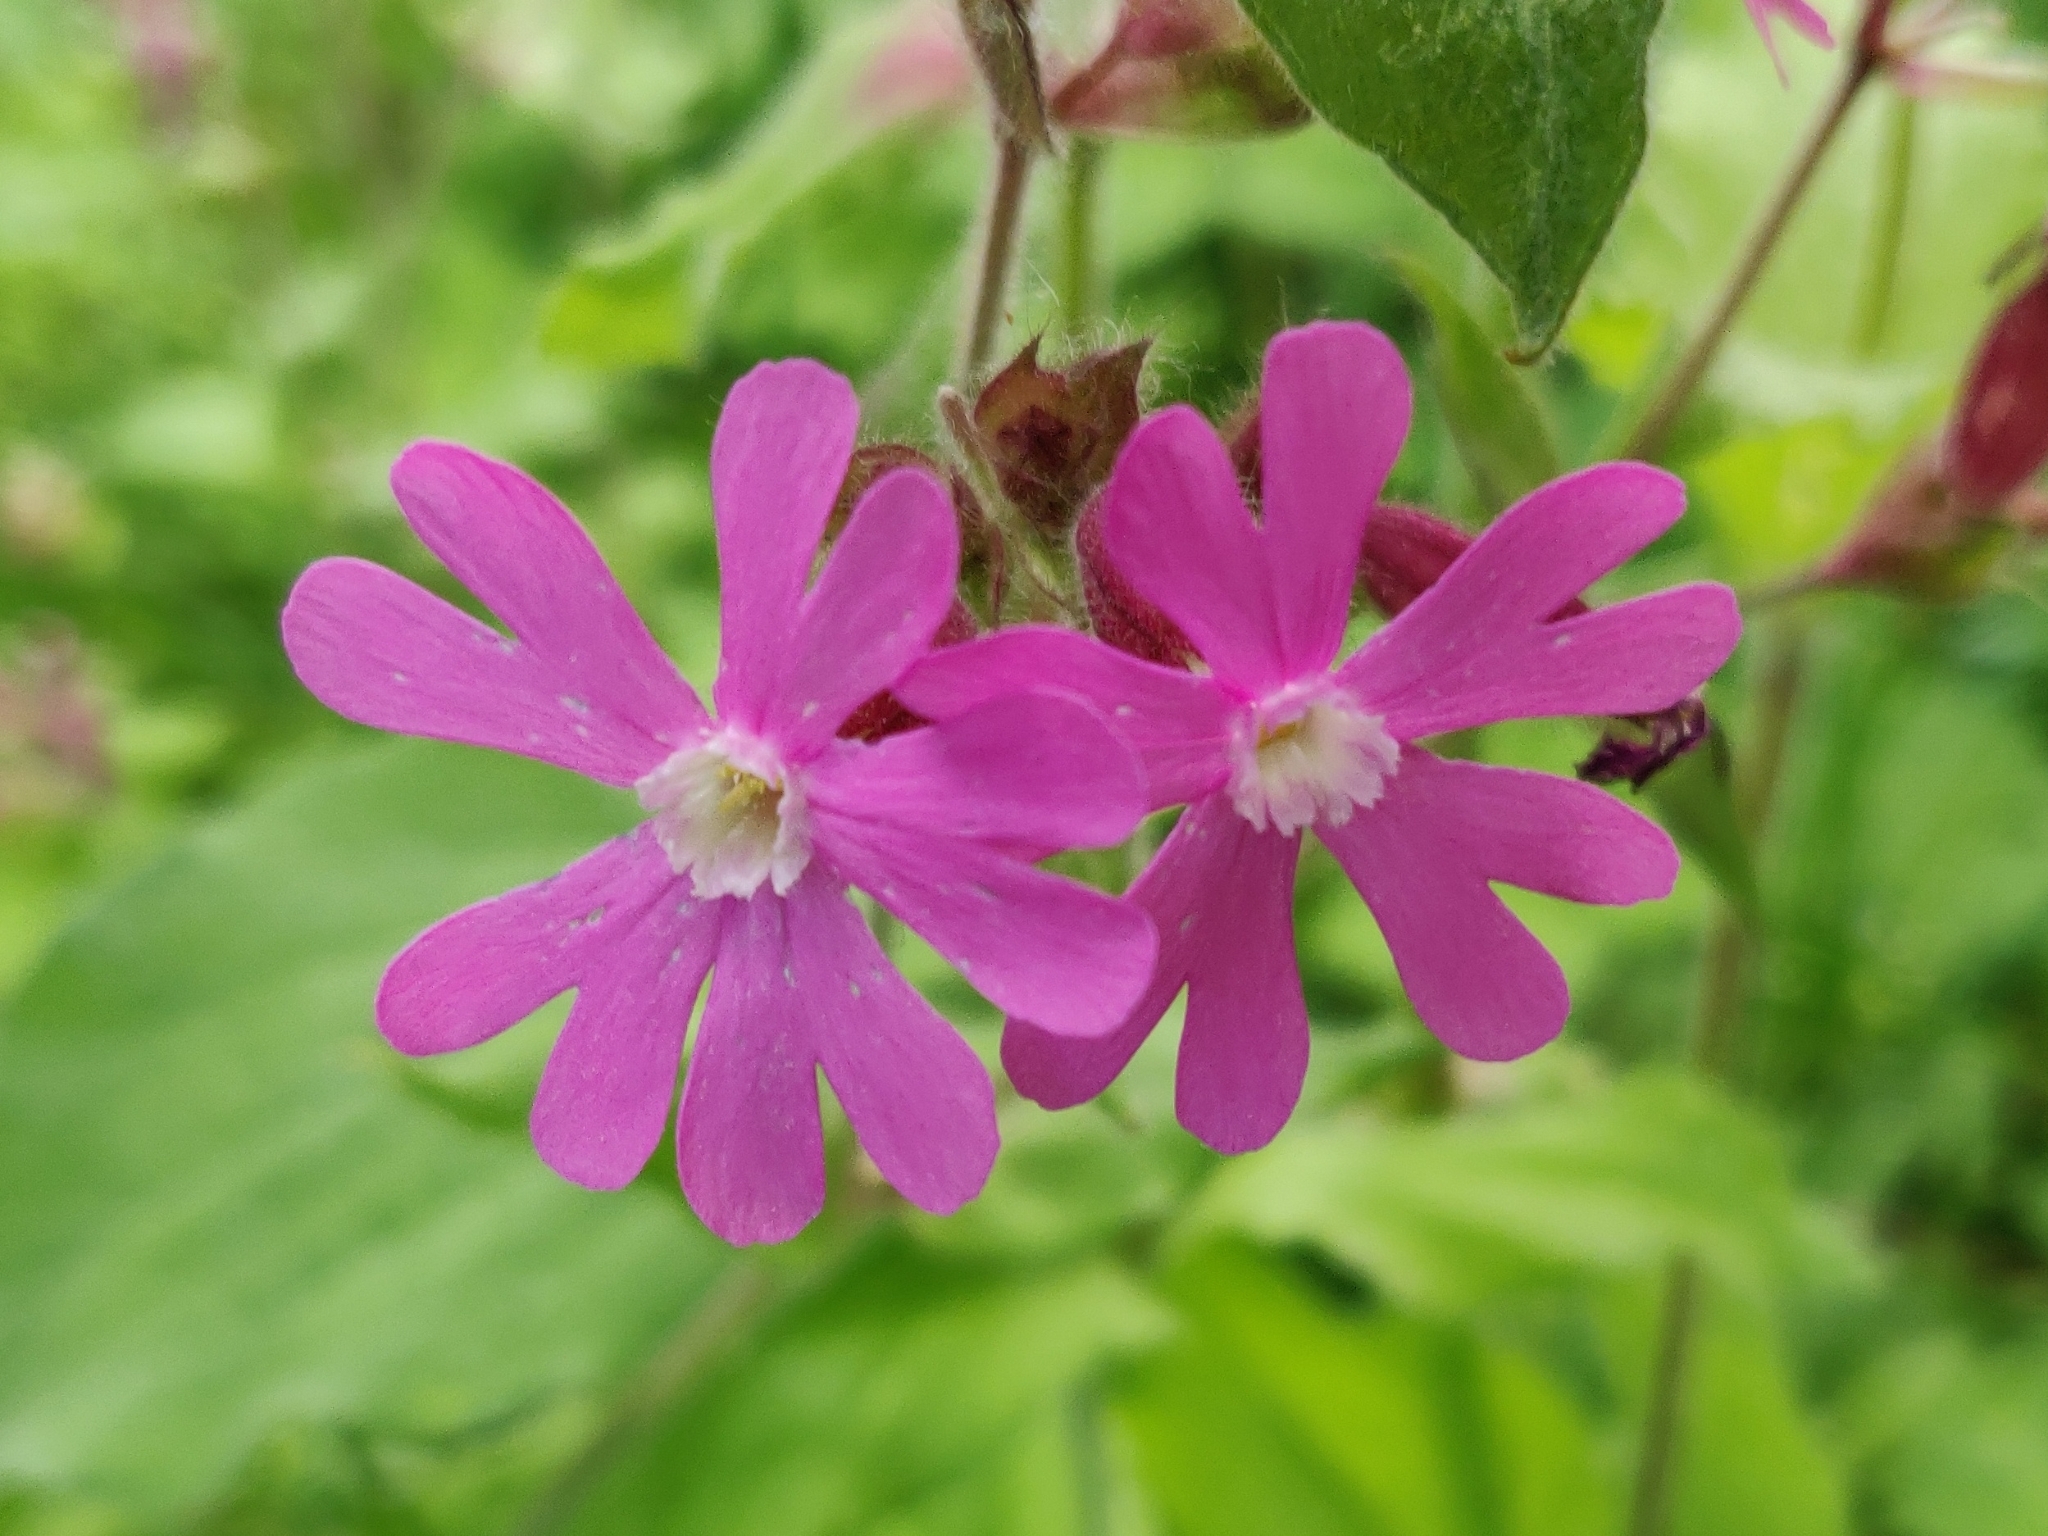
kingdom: Plantae
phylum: Tracheophyta
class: Magnoliopsida
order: Caryophyllales
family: Caryophyllaceae
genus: Silene
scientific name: Silene dioica
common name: Red campion
